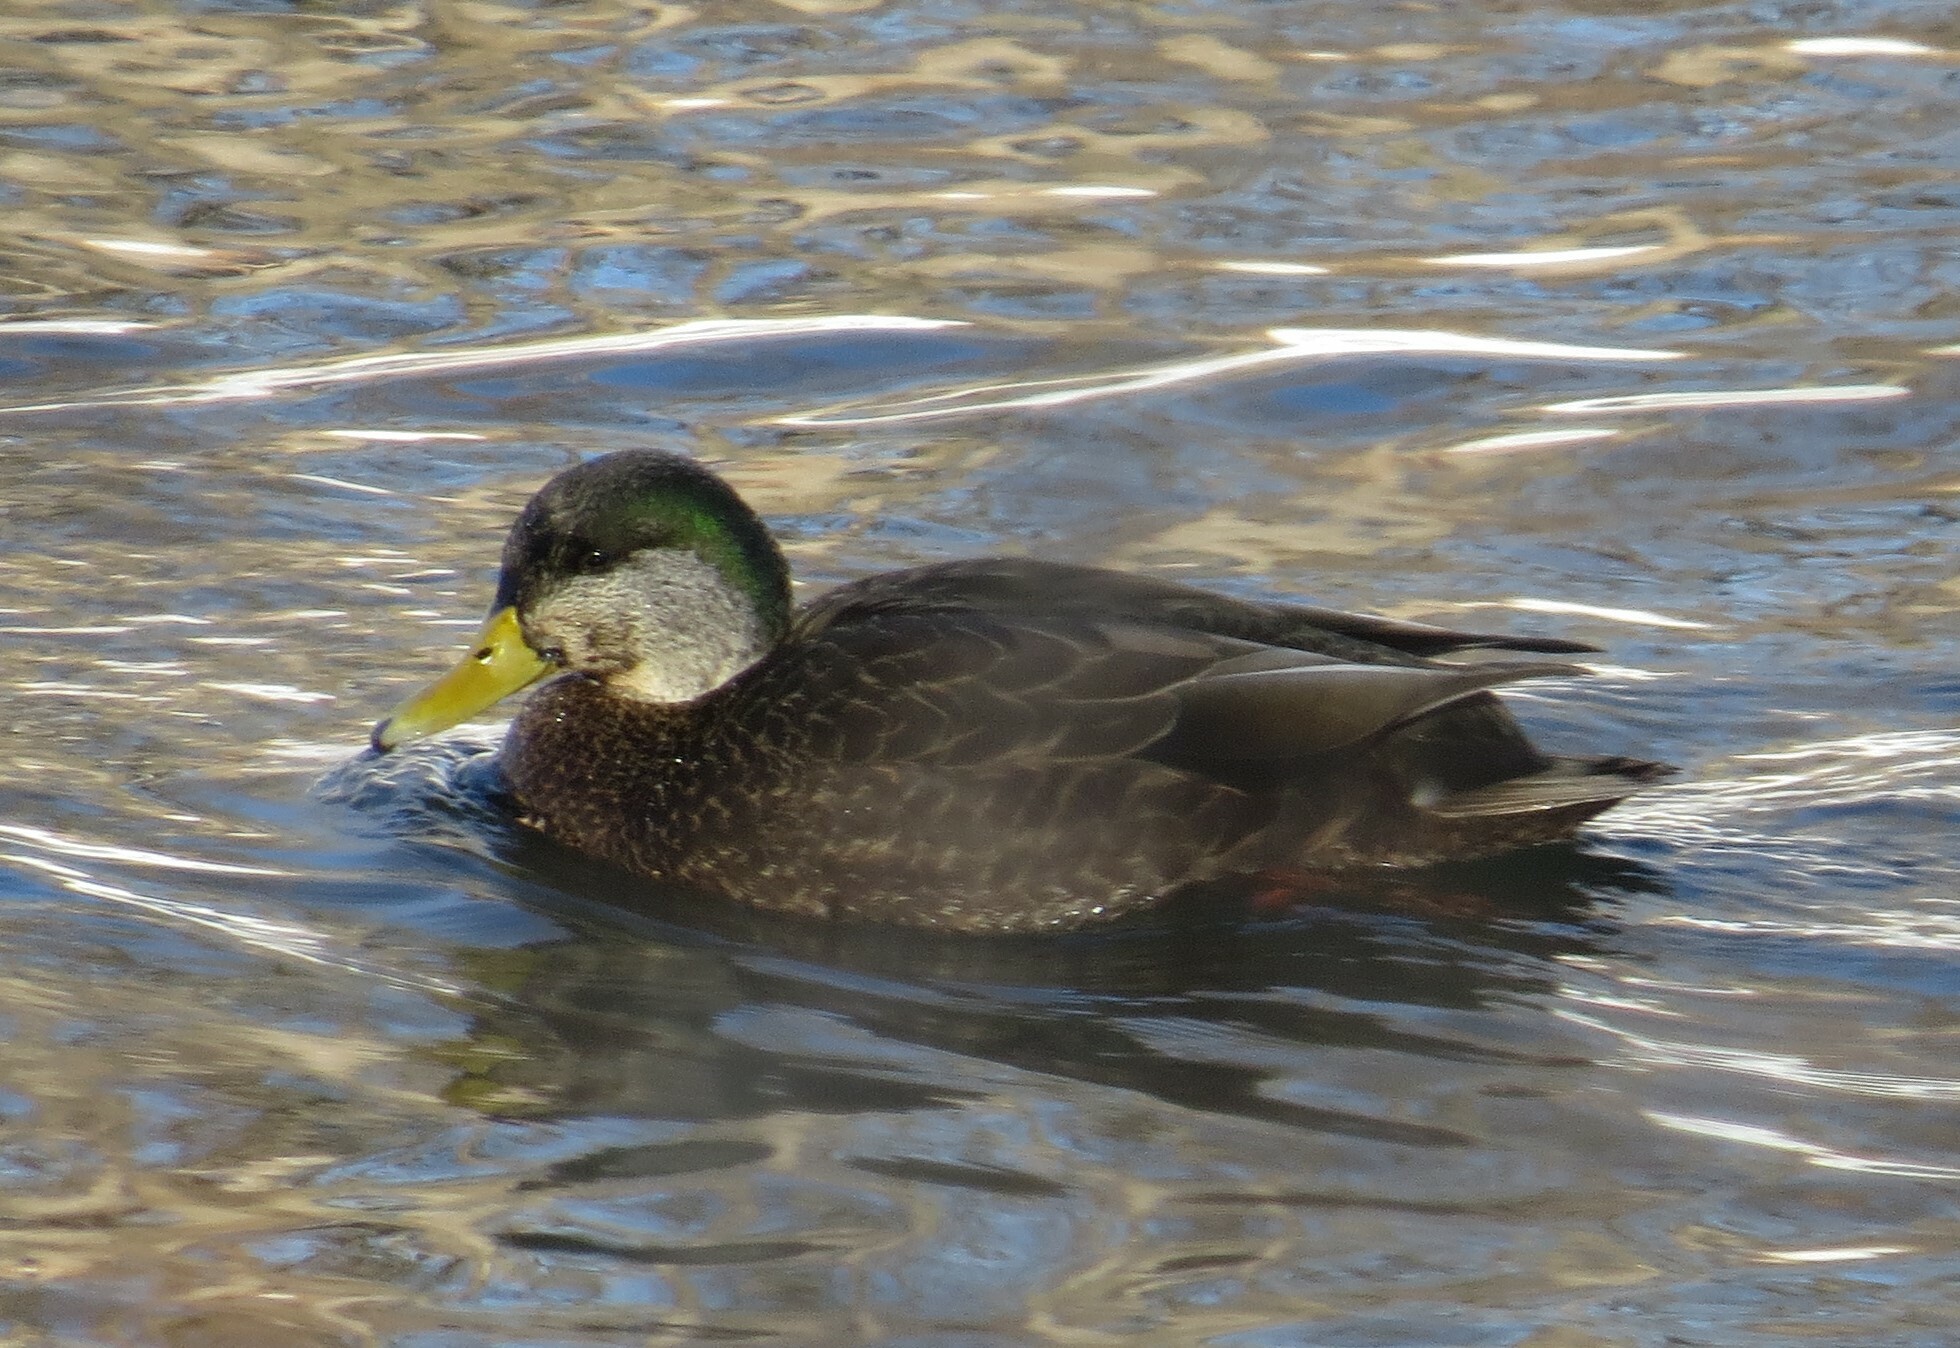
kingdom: Animalia
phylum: Chordata
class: Aves
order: Anseriformes
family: Anatidae
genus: Anas
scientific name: Anas rubripes
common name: American black duck
